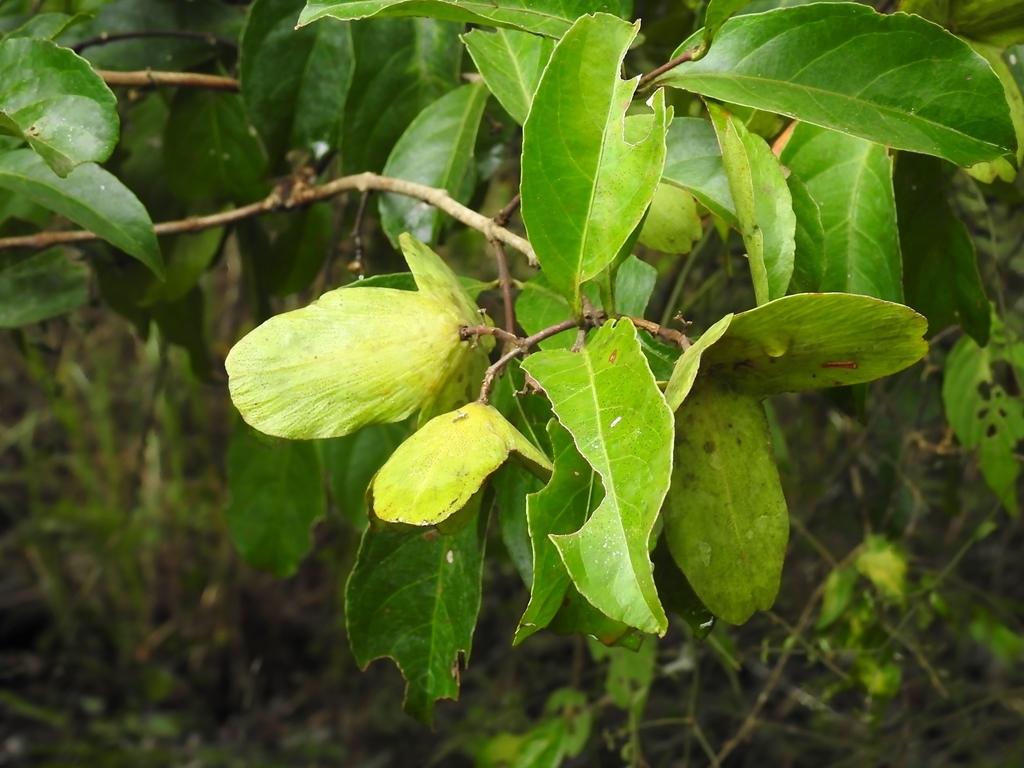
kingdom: Plantae
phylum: Tracheophyta
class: Magnoliopsida
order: Celastrales
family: Celastraceae
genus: Semialarium
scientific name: Semialarium mexicanum
